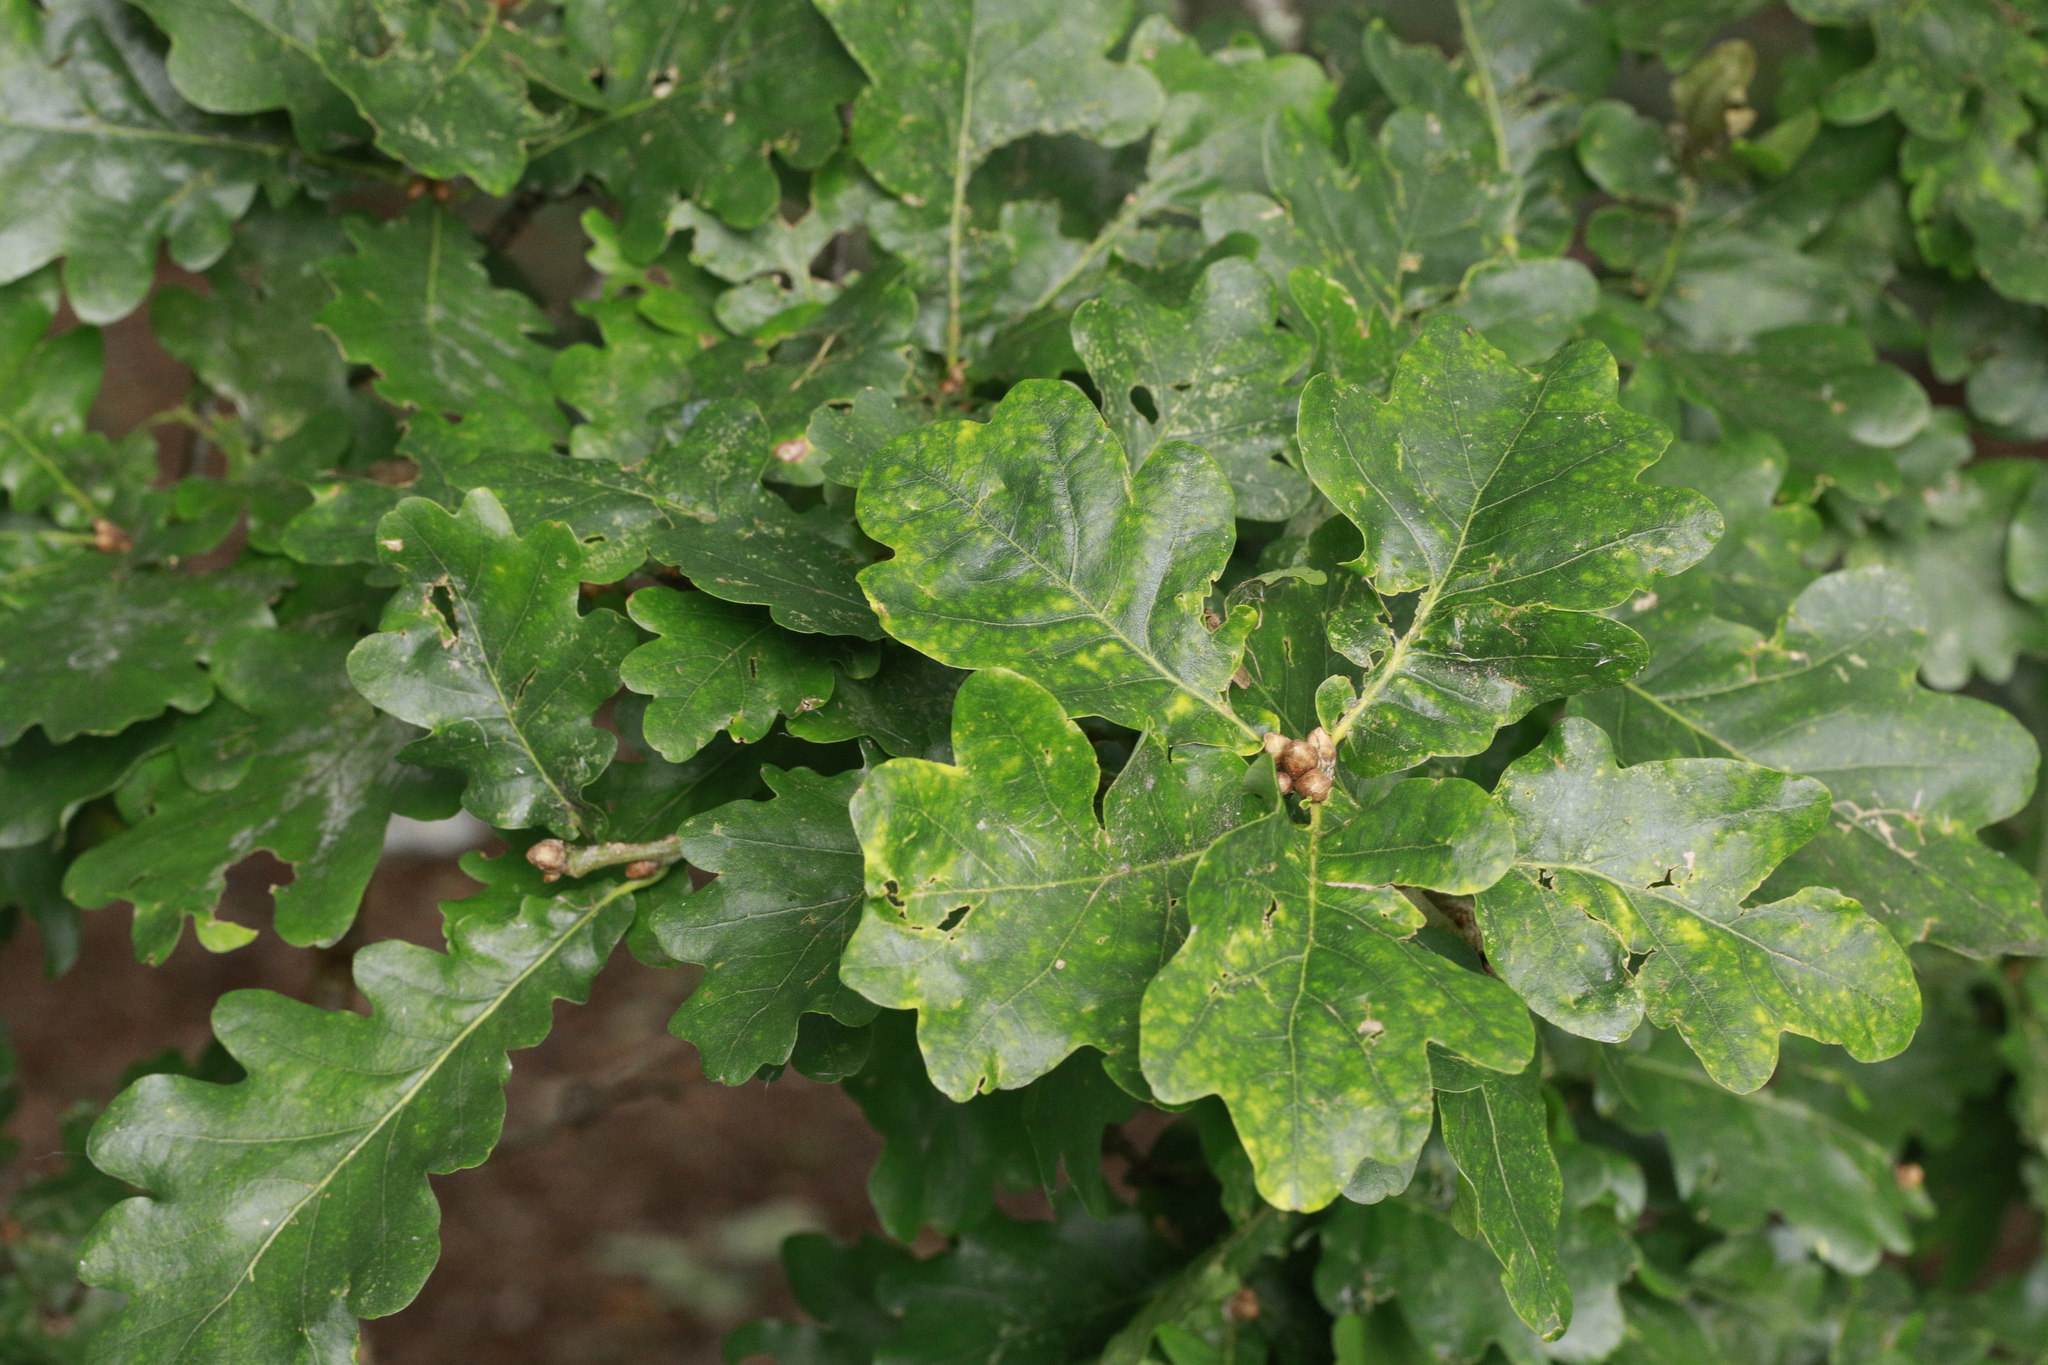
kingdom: Plantae
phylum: Tracheophyta
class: Magnoliopsida
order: Fagales
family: Fagaceae
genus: Quercus
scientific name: Quercus robur
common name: Pedunculate oak
